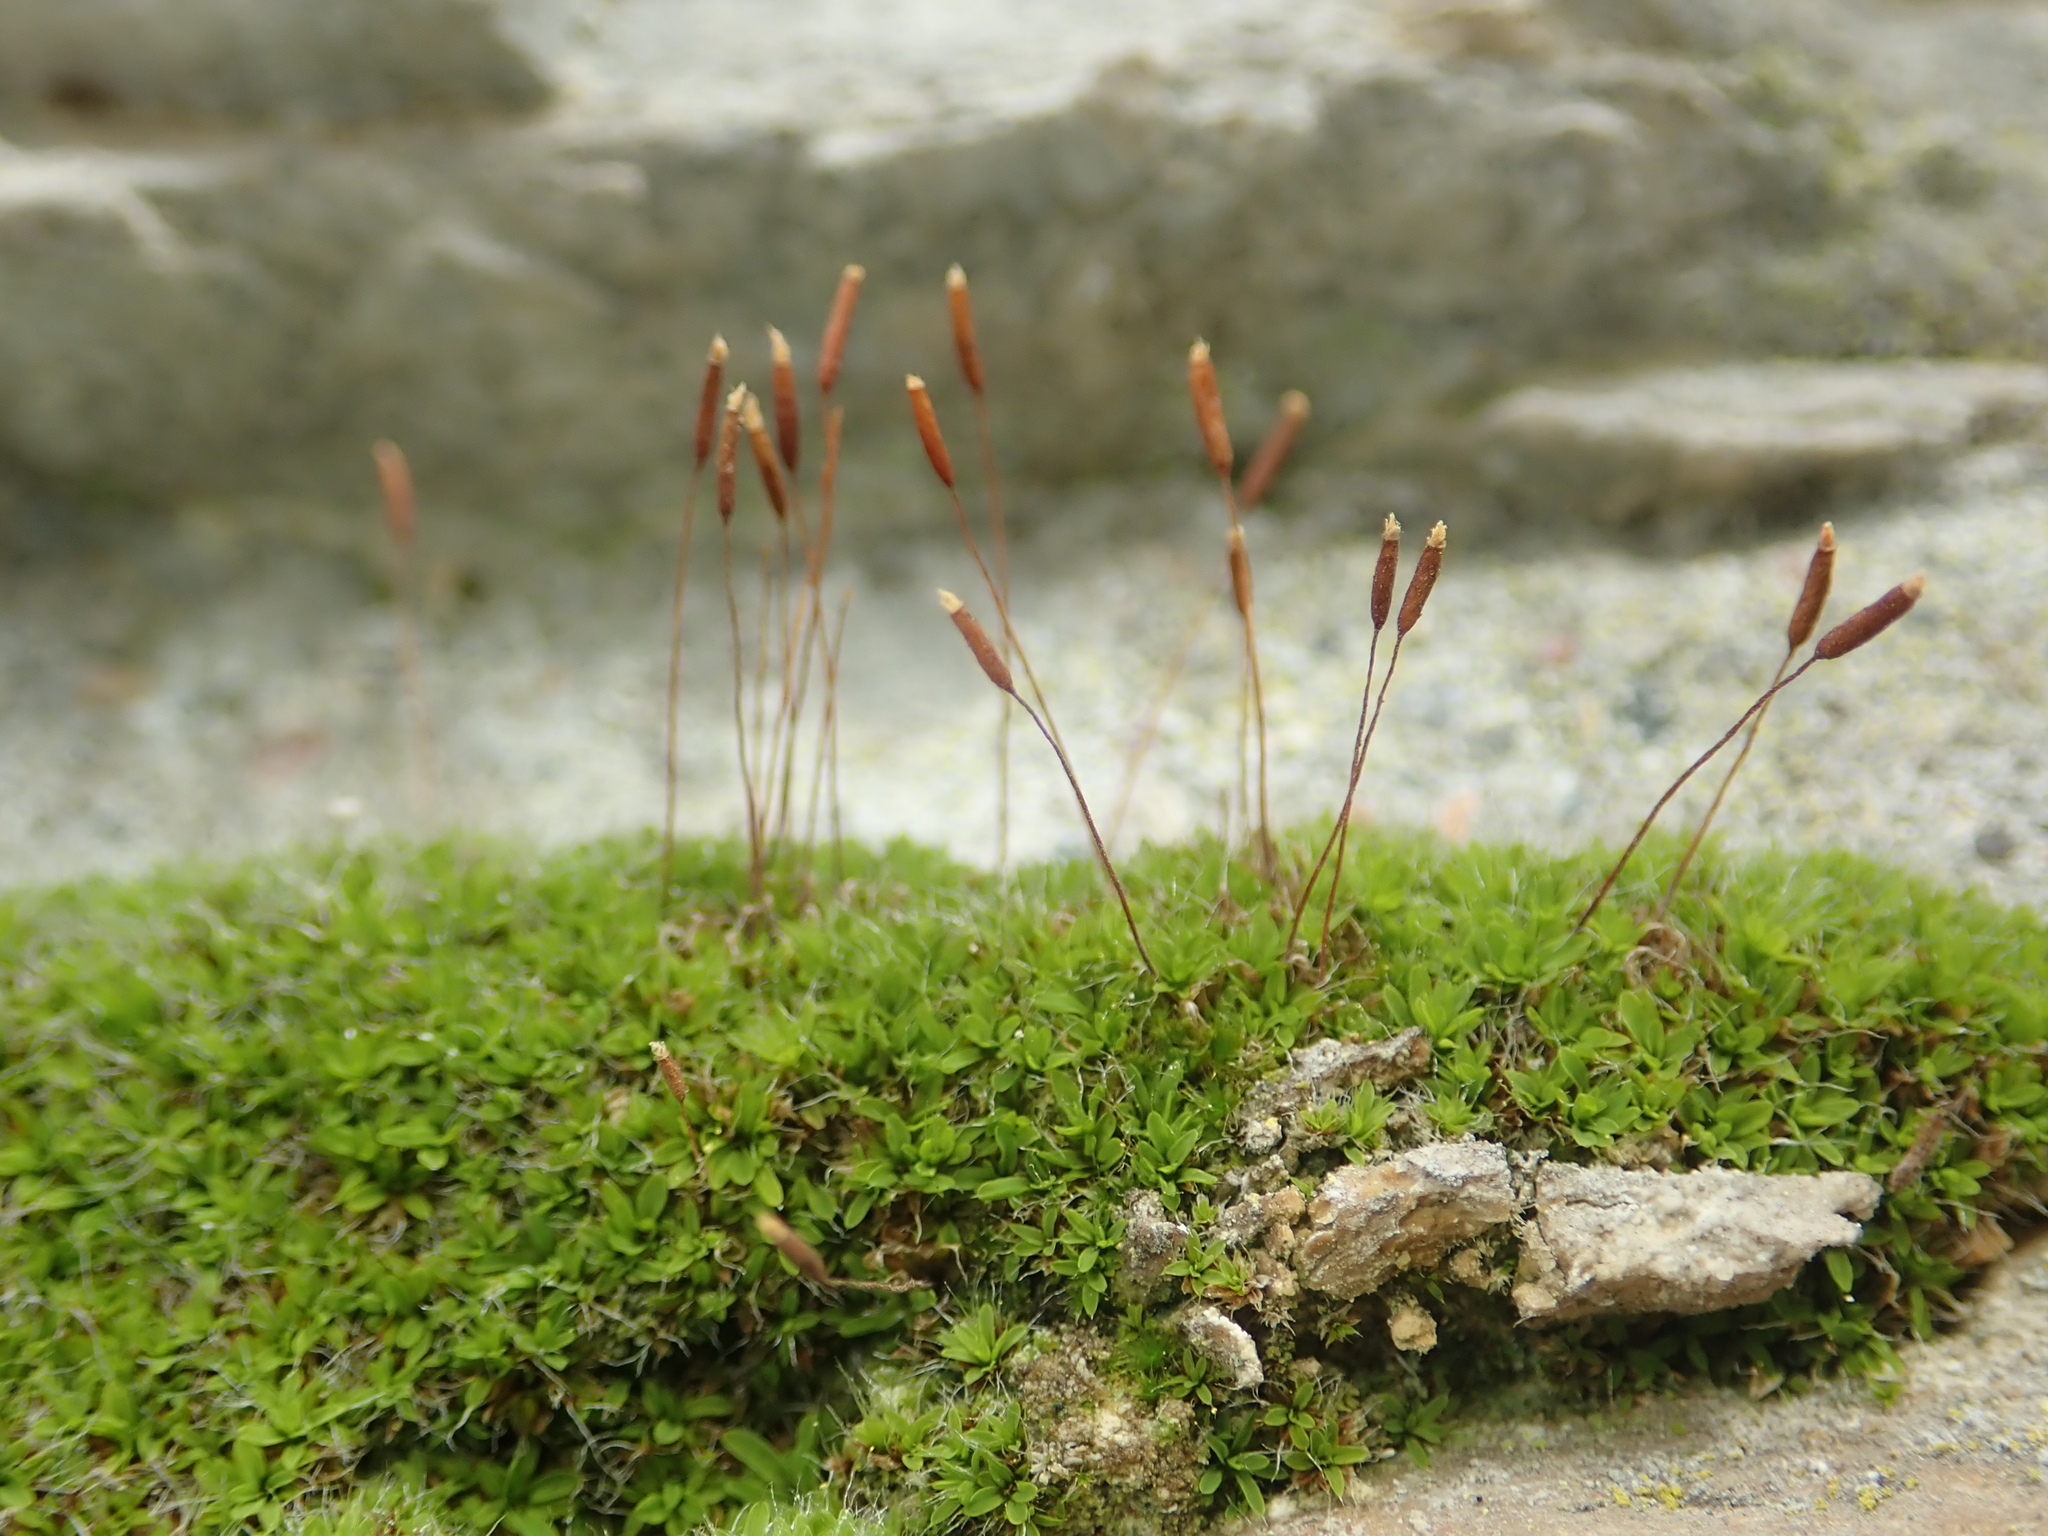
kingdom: Plantae
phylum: Bryophyta
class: Bryopsida
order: Pottiales
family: Pottiaceae
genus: Tortula
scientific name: Tortula muralis
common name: Wall screw-moss
